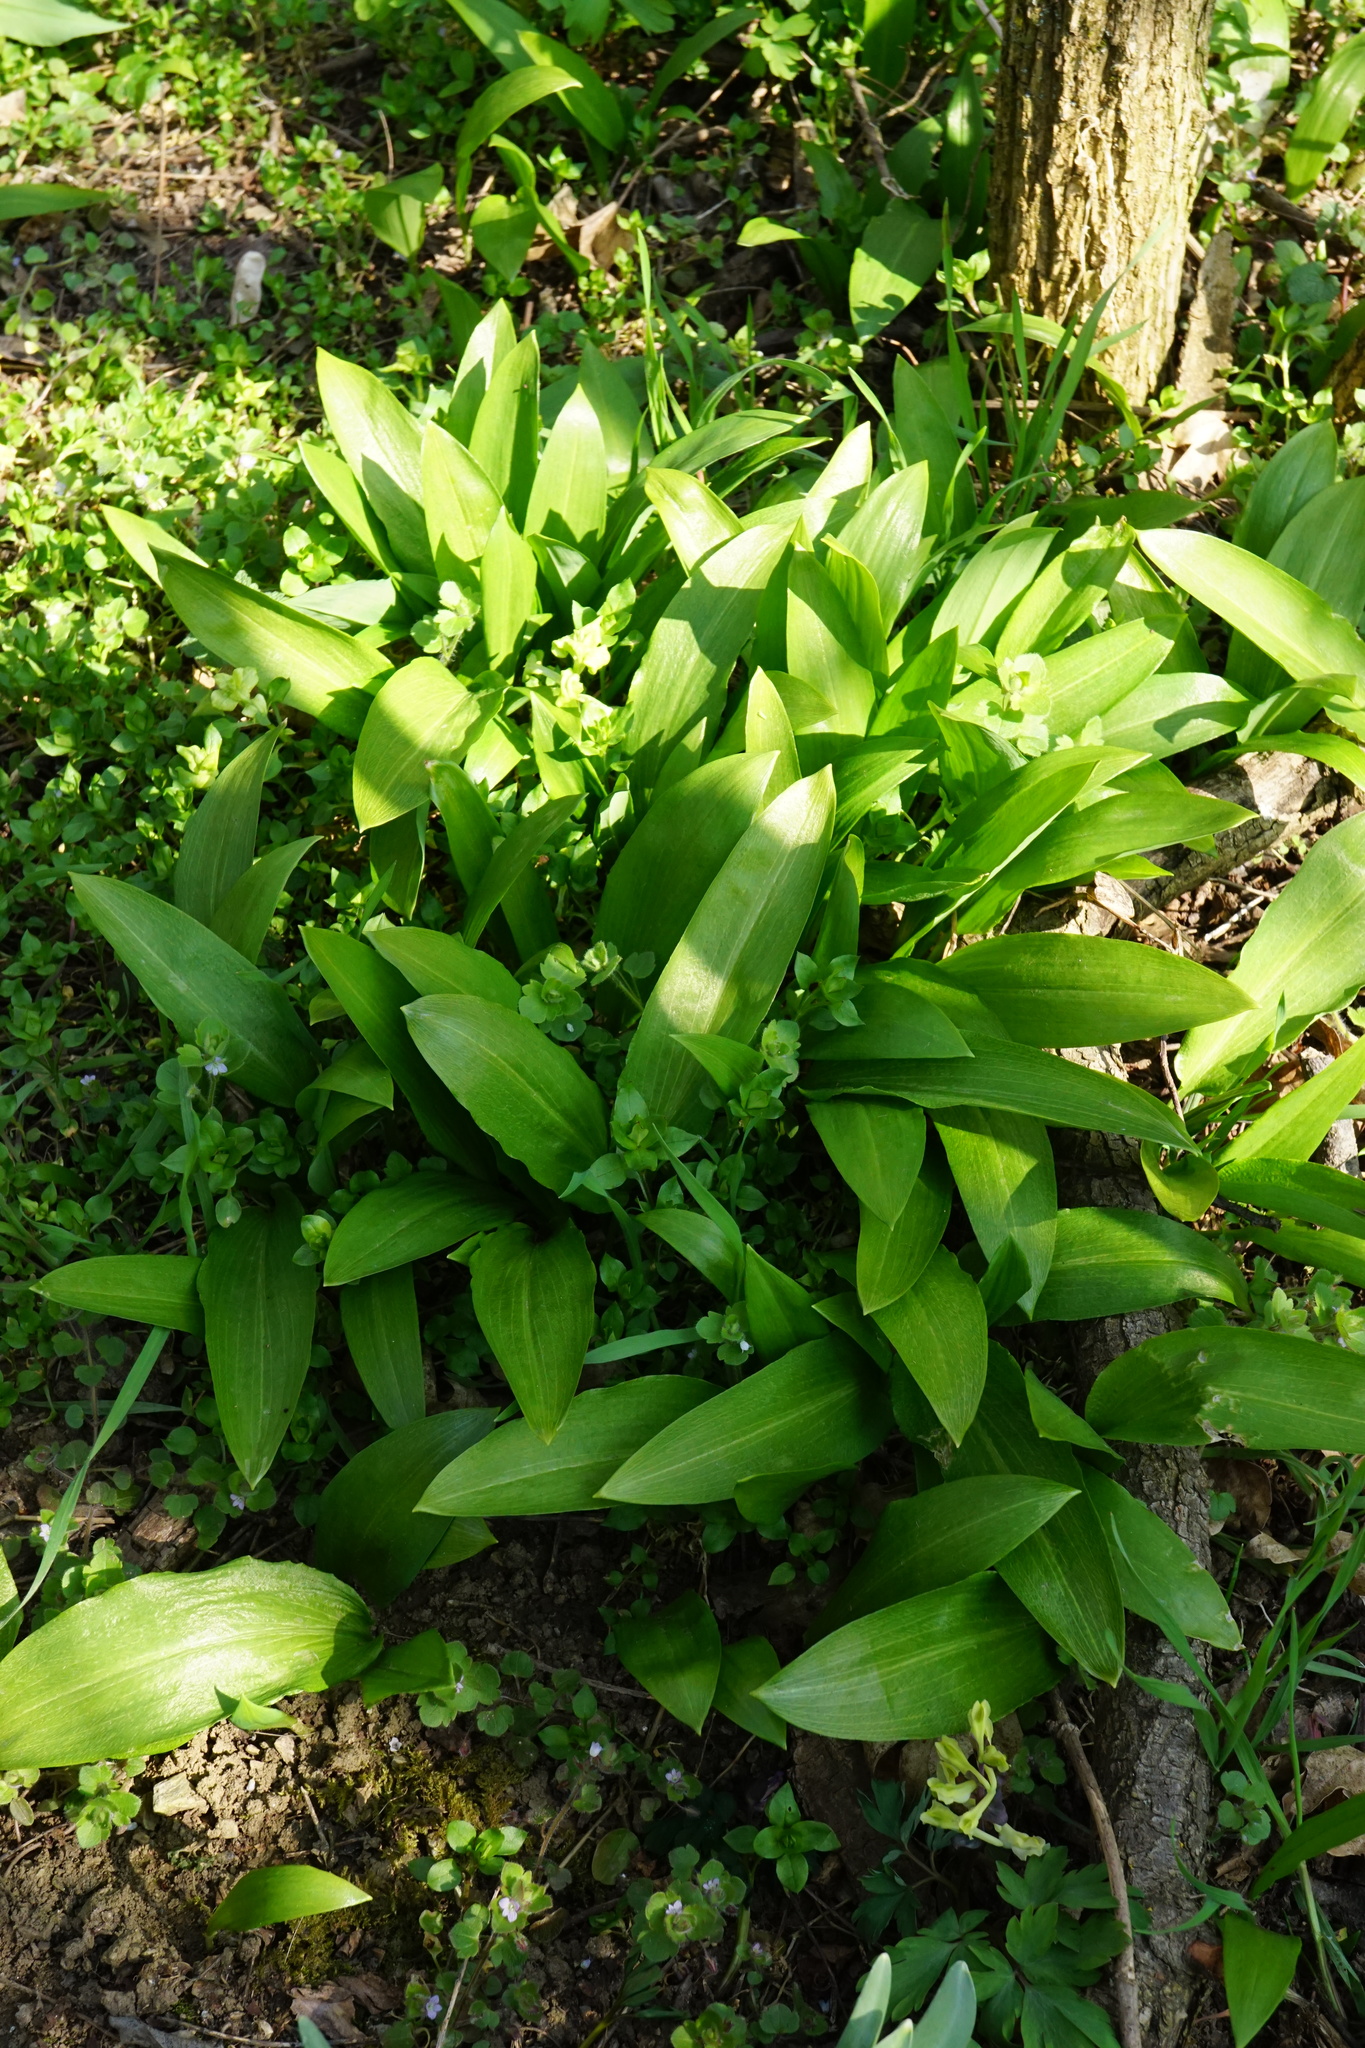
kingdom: Plantae
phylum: Tracheophyta
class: Liliopsida
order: Asparagales
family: Amaryllidaceae
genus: Allium
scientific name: Allium ursinum
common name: Ramsons
